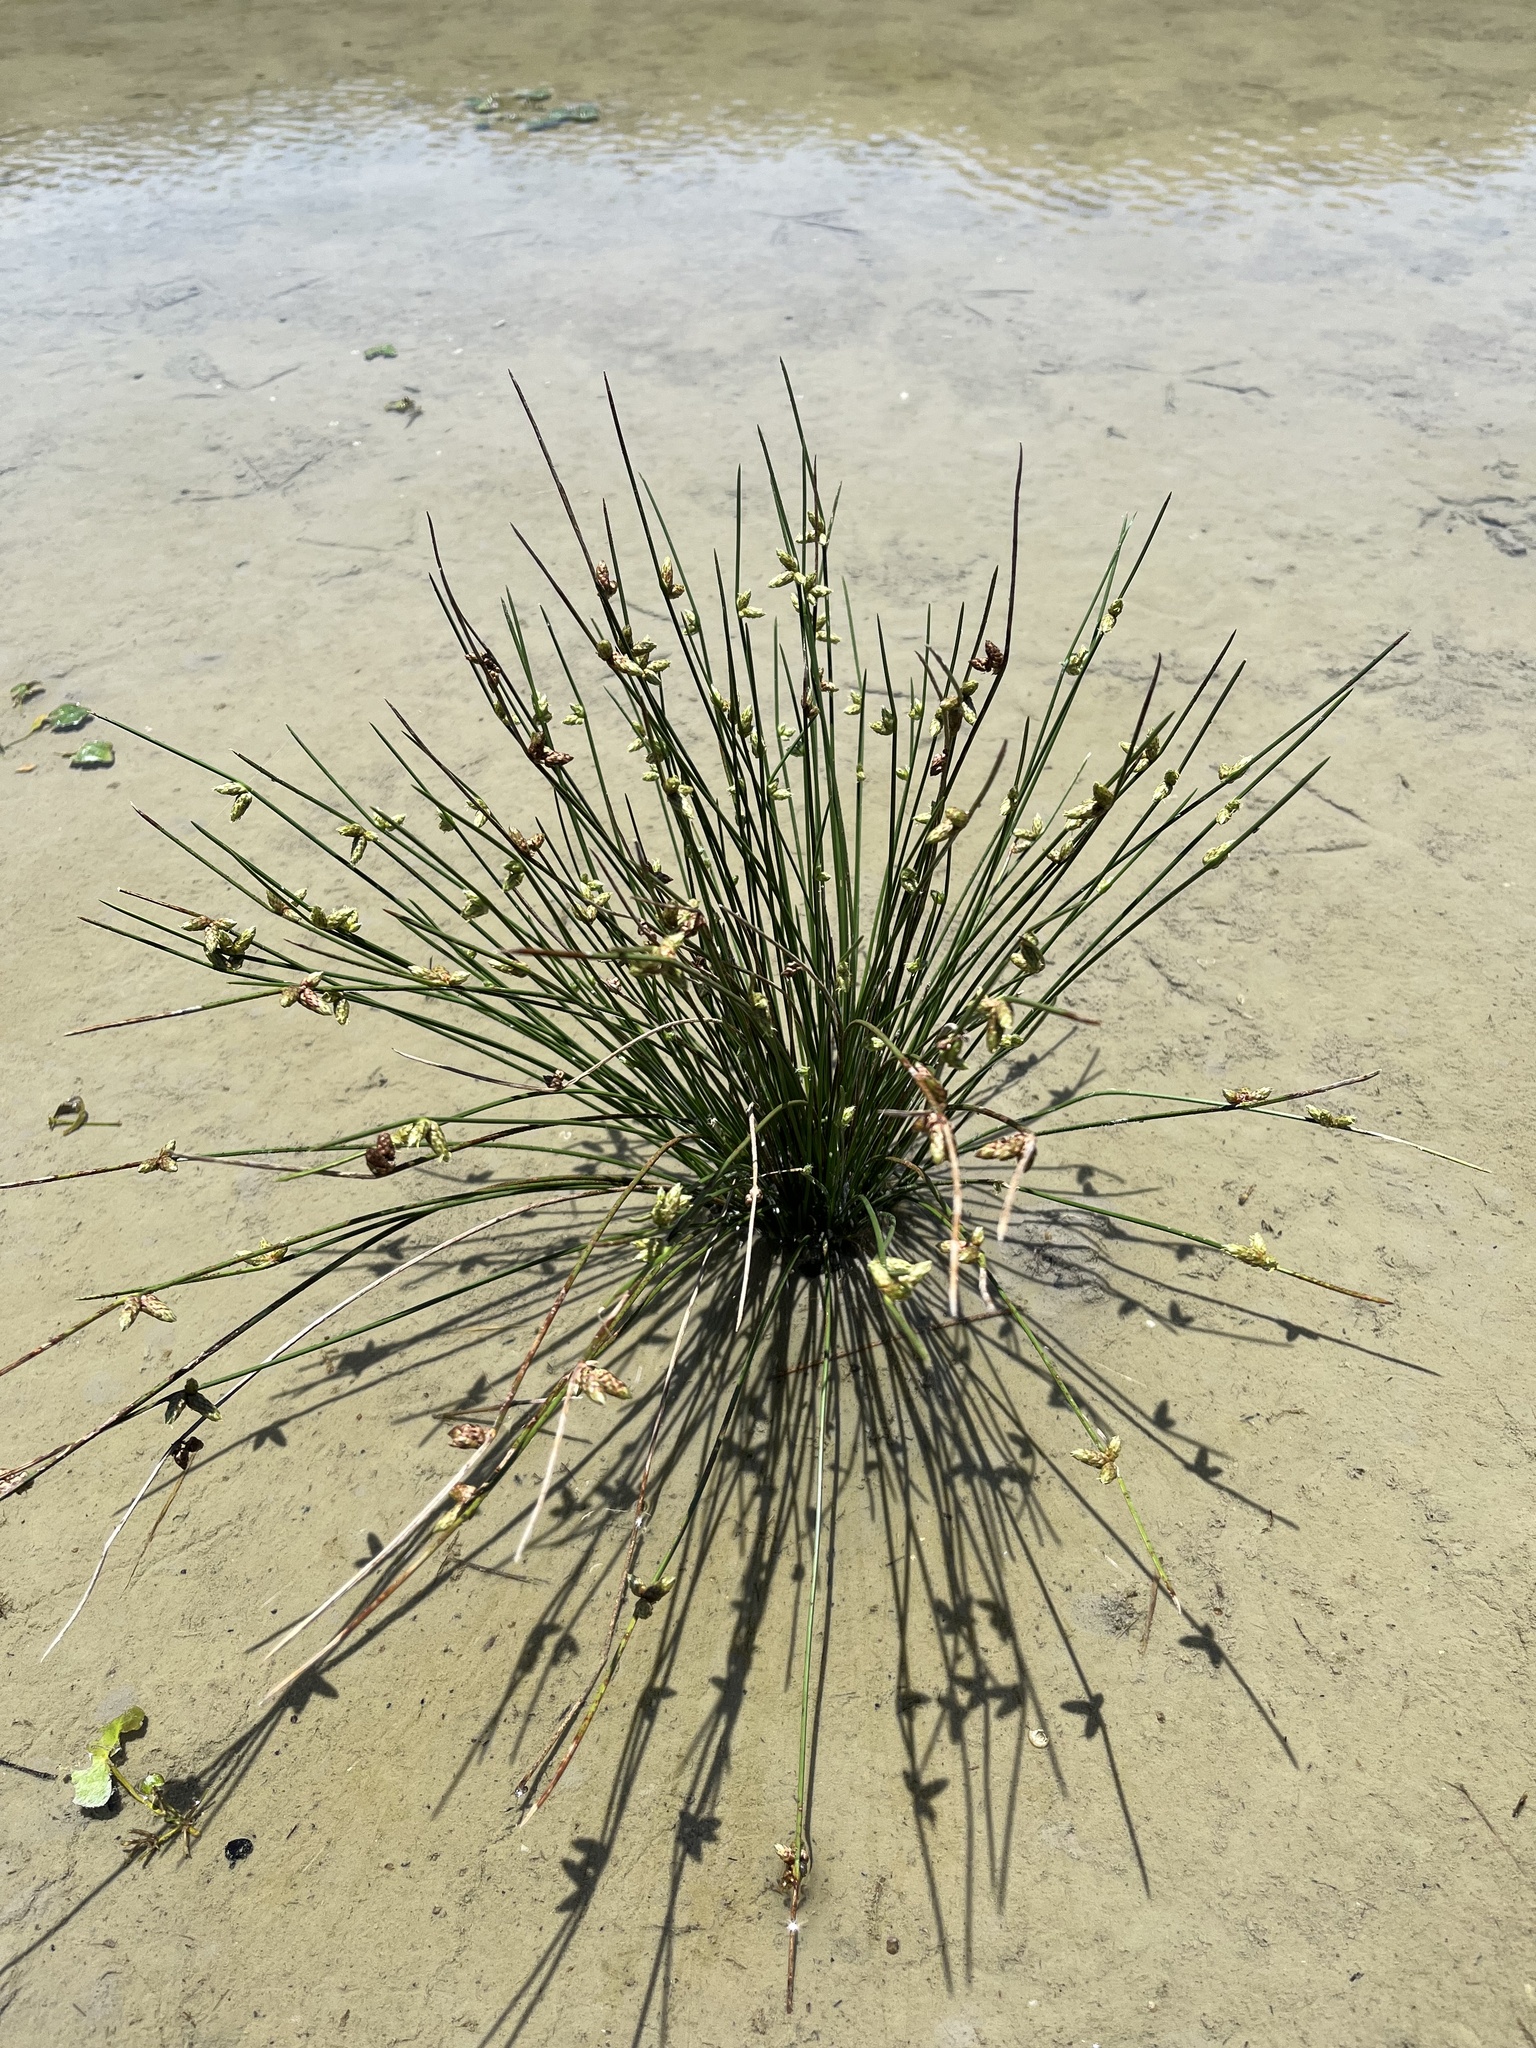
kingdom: Plantae
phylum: Tracheophyta
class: Liliopsida
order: Poales
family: Cyperaceae
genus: Schoenoplectiella
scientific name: Schoenoplectiella juncoides
